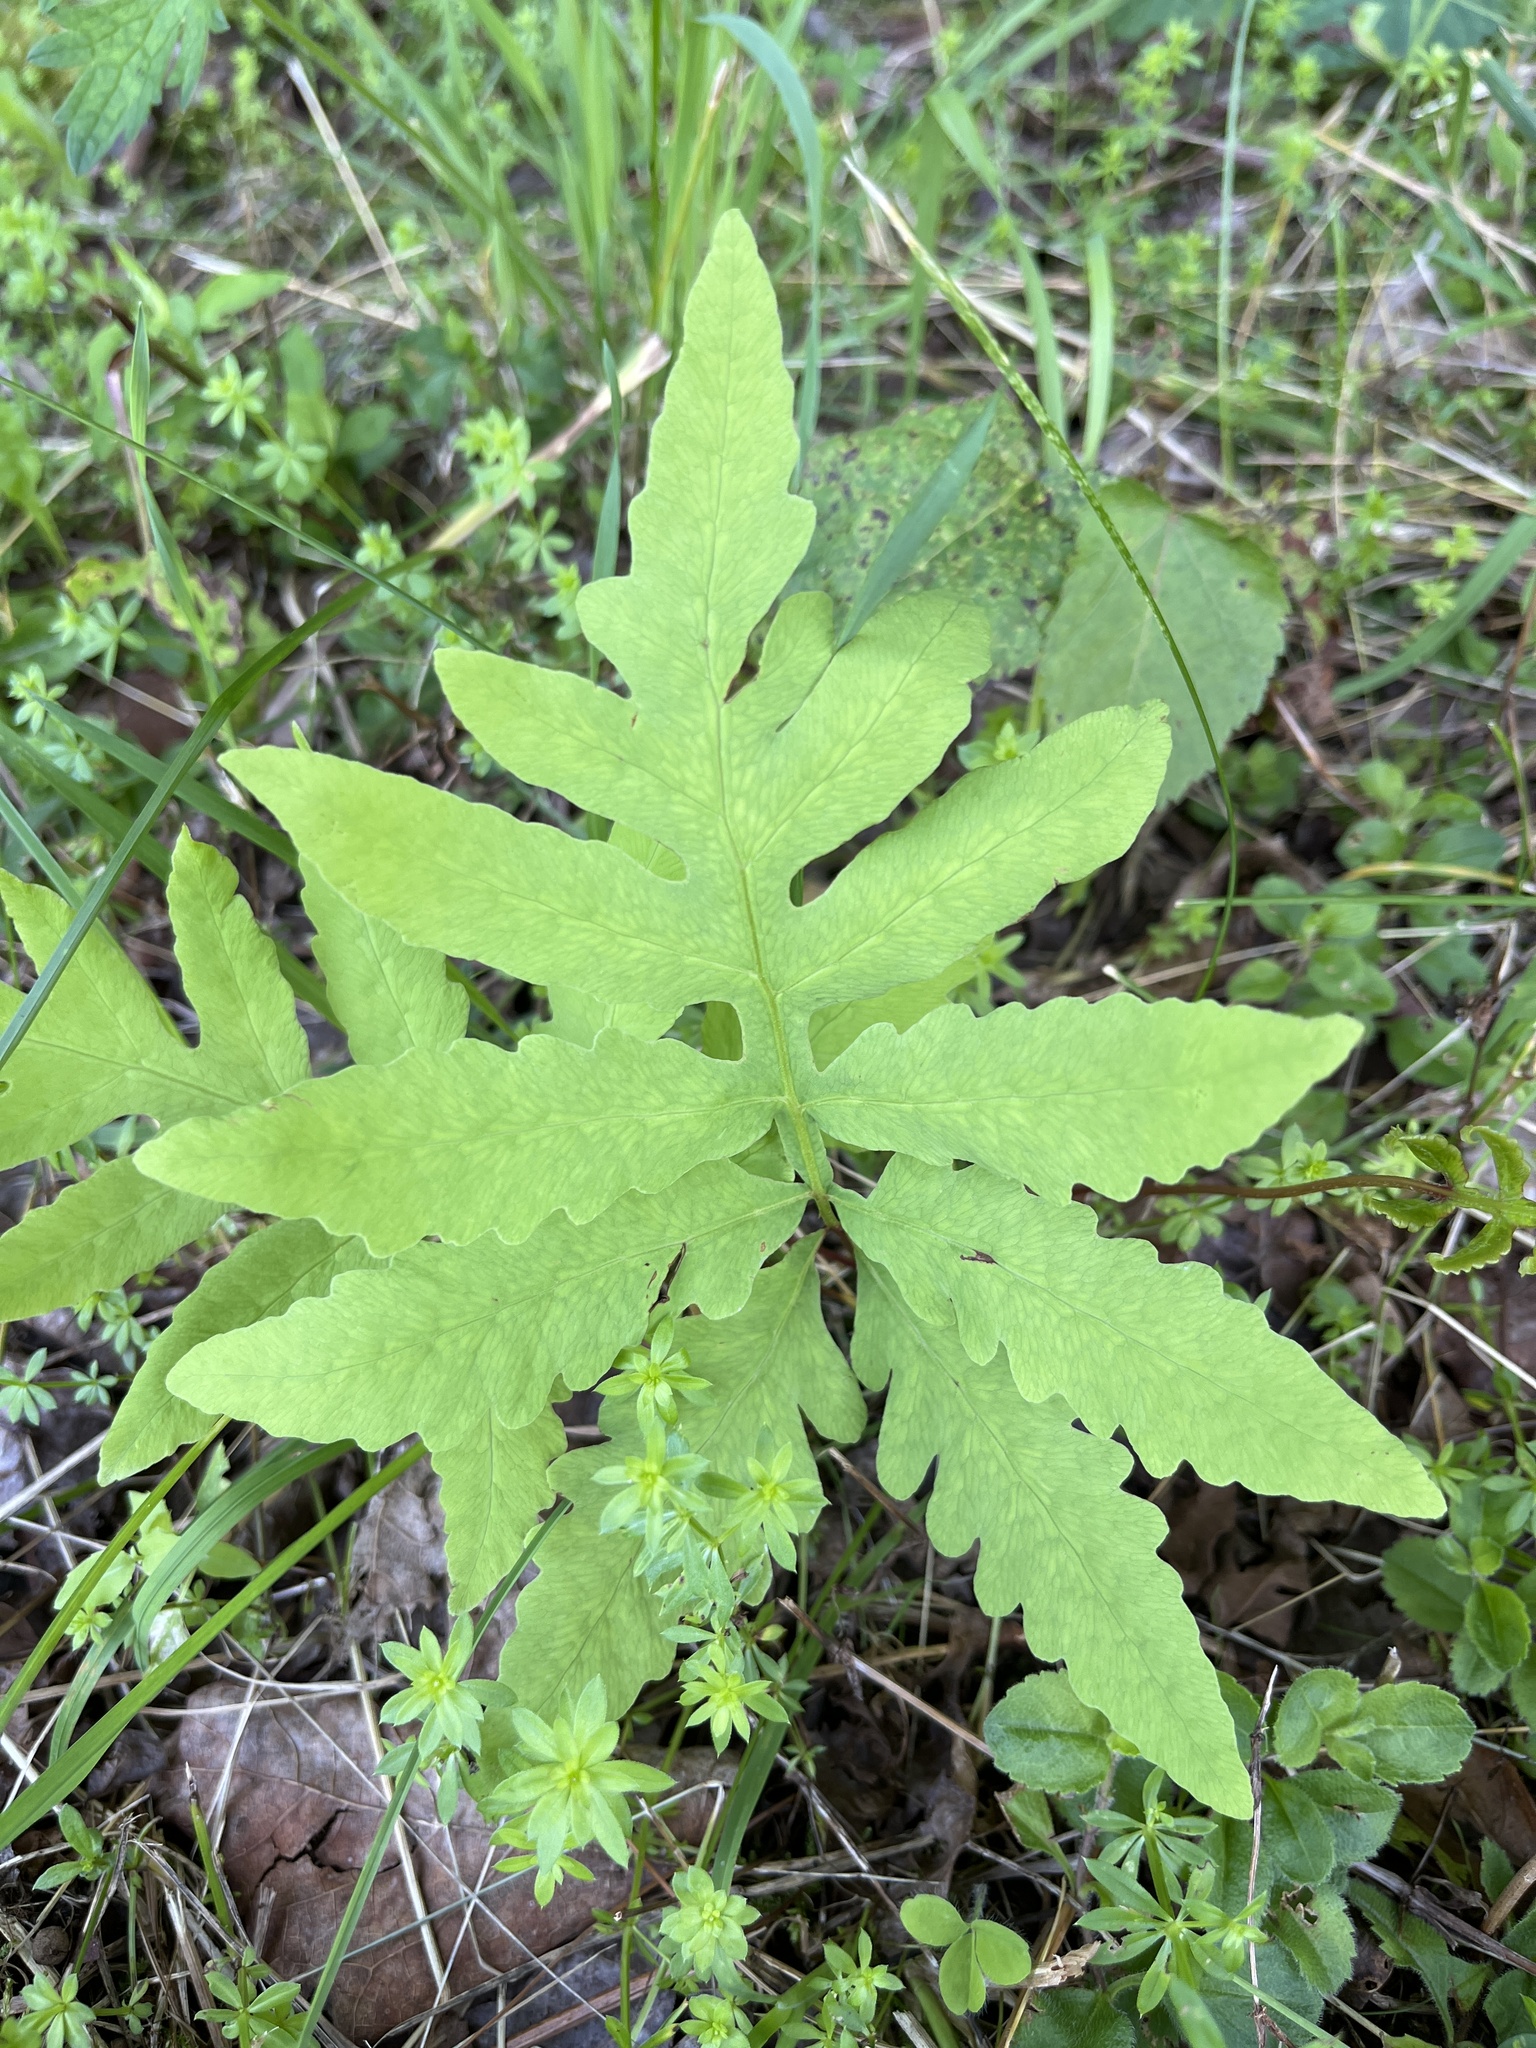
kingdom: Plantae
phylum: Tracheophyta
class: Polypodiopsida
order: Polypodiales
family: Onocleaceae
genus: Onoclea
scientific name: Onoclea sensibilis
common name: Sensitive fern
